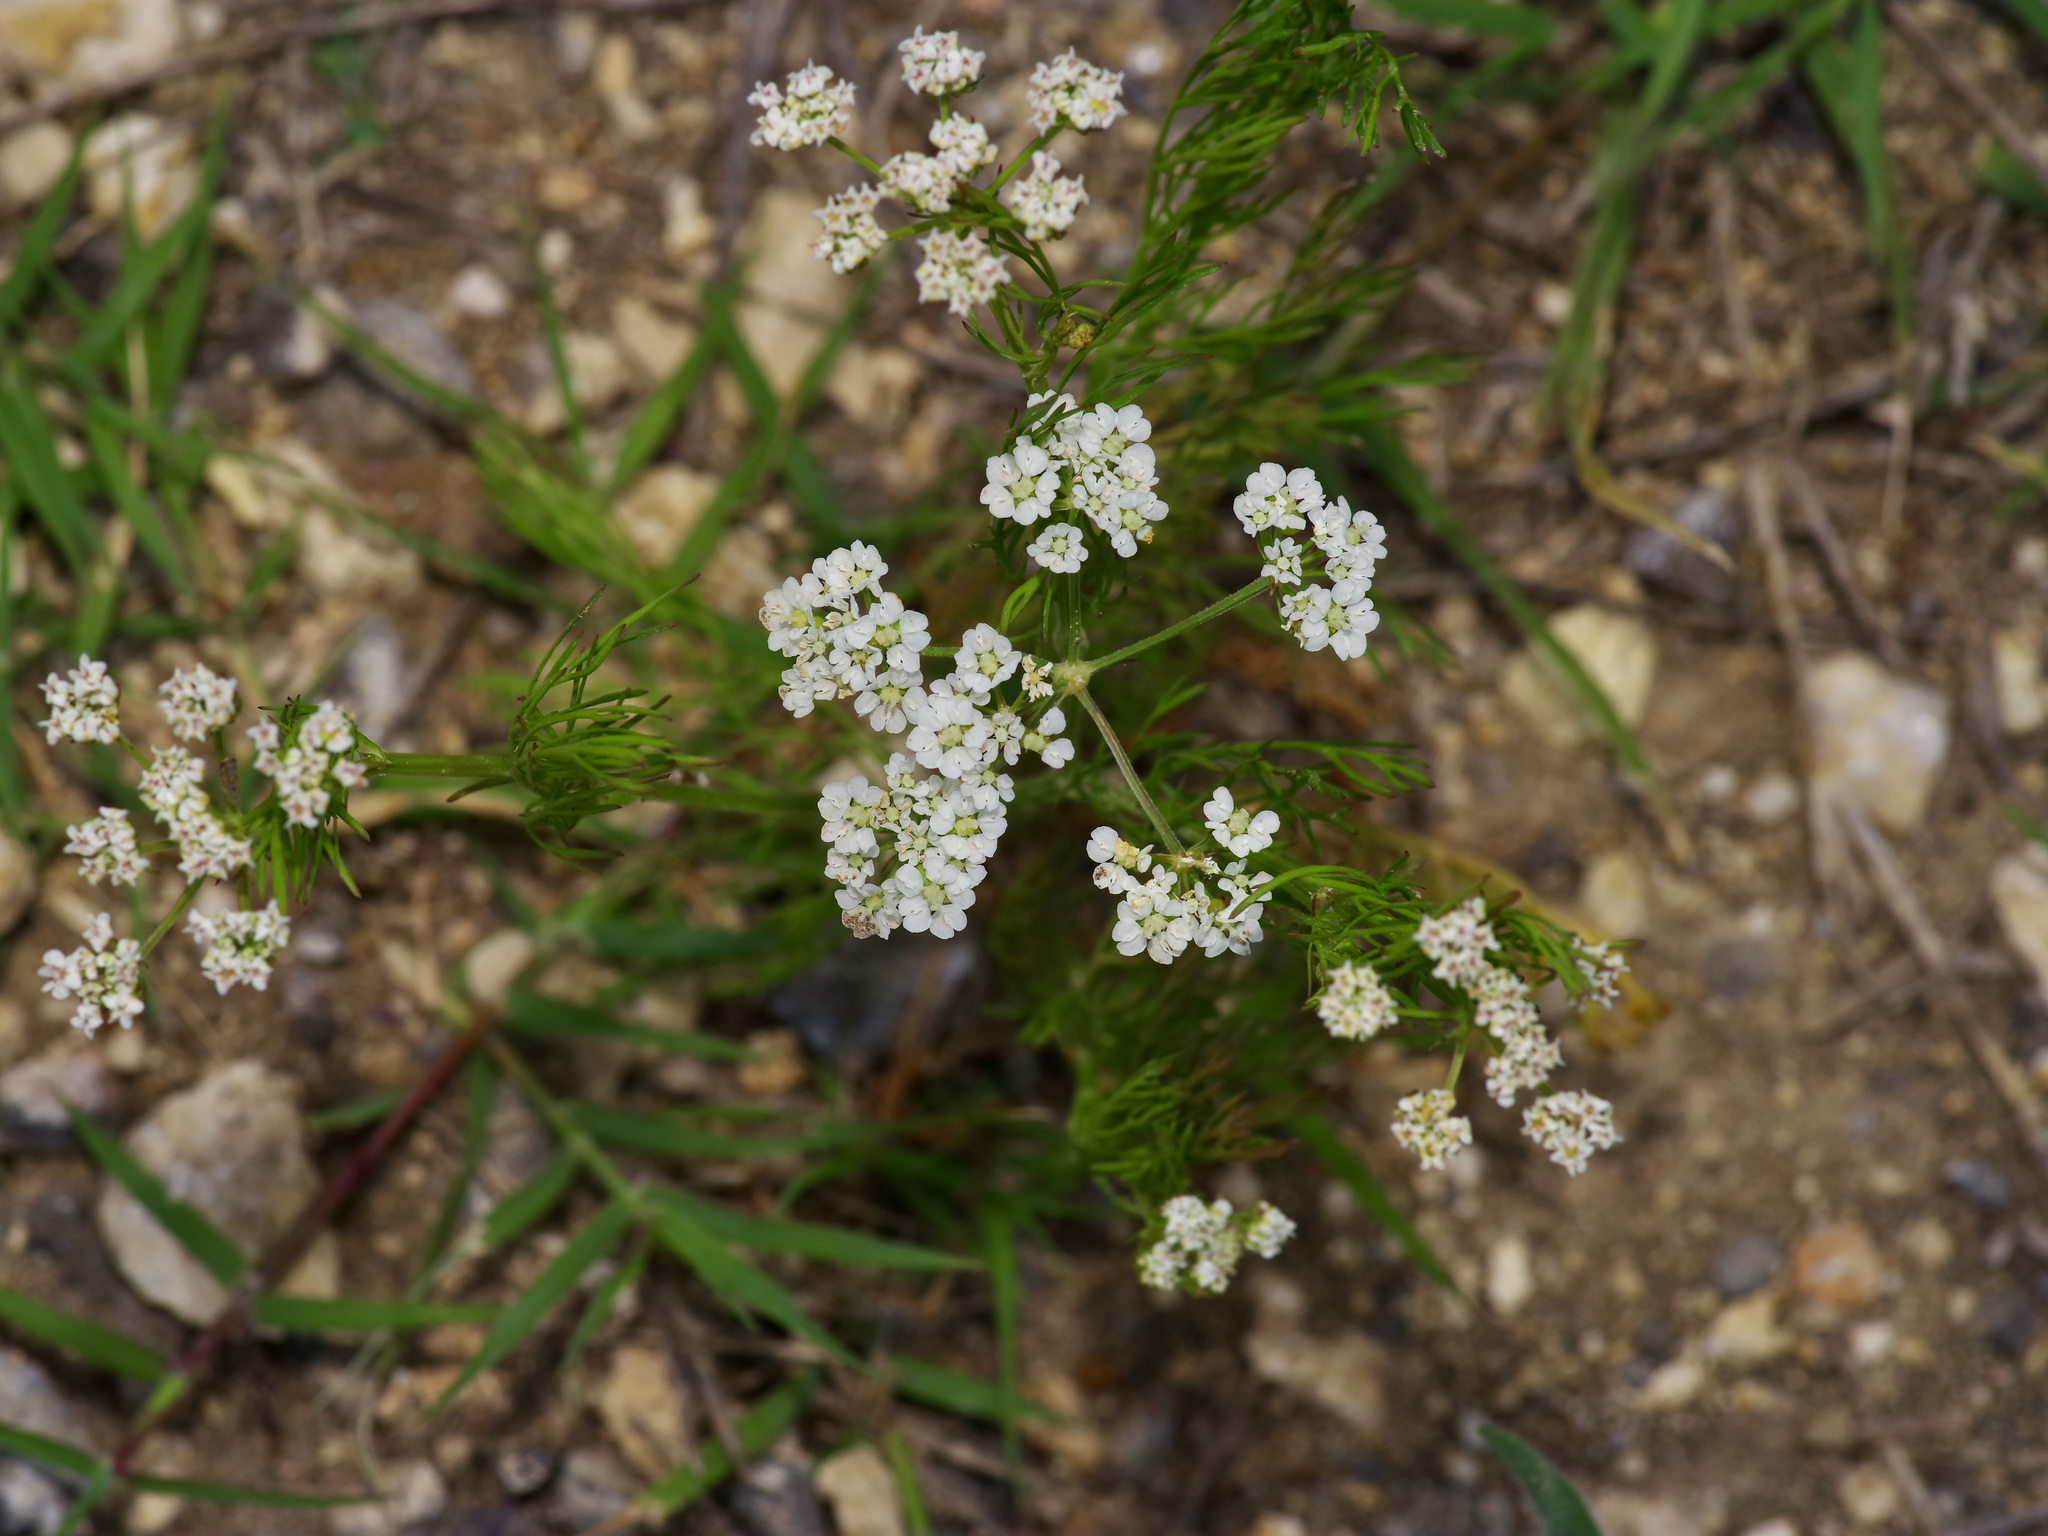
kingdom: Plantae
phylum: Tracheophyta
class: Magnoliopsida
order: Apiales
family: Apiaceae
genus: Atrema
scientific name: Atrema americanum
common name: Prairie-bishop
